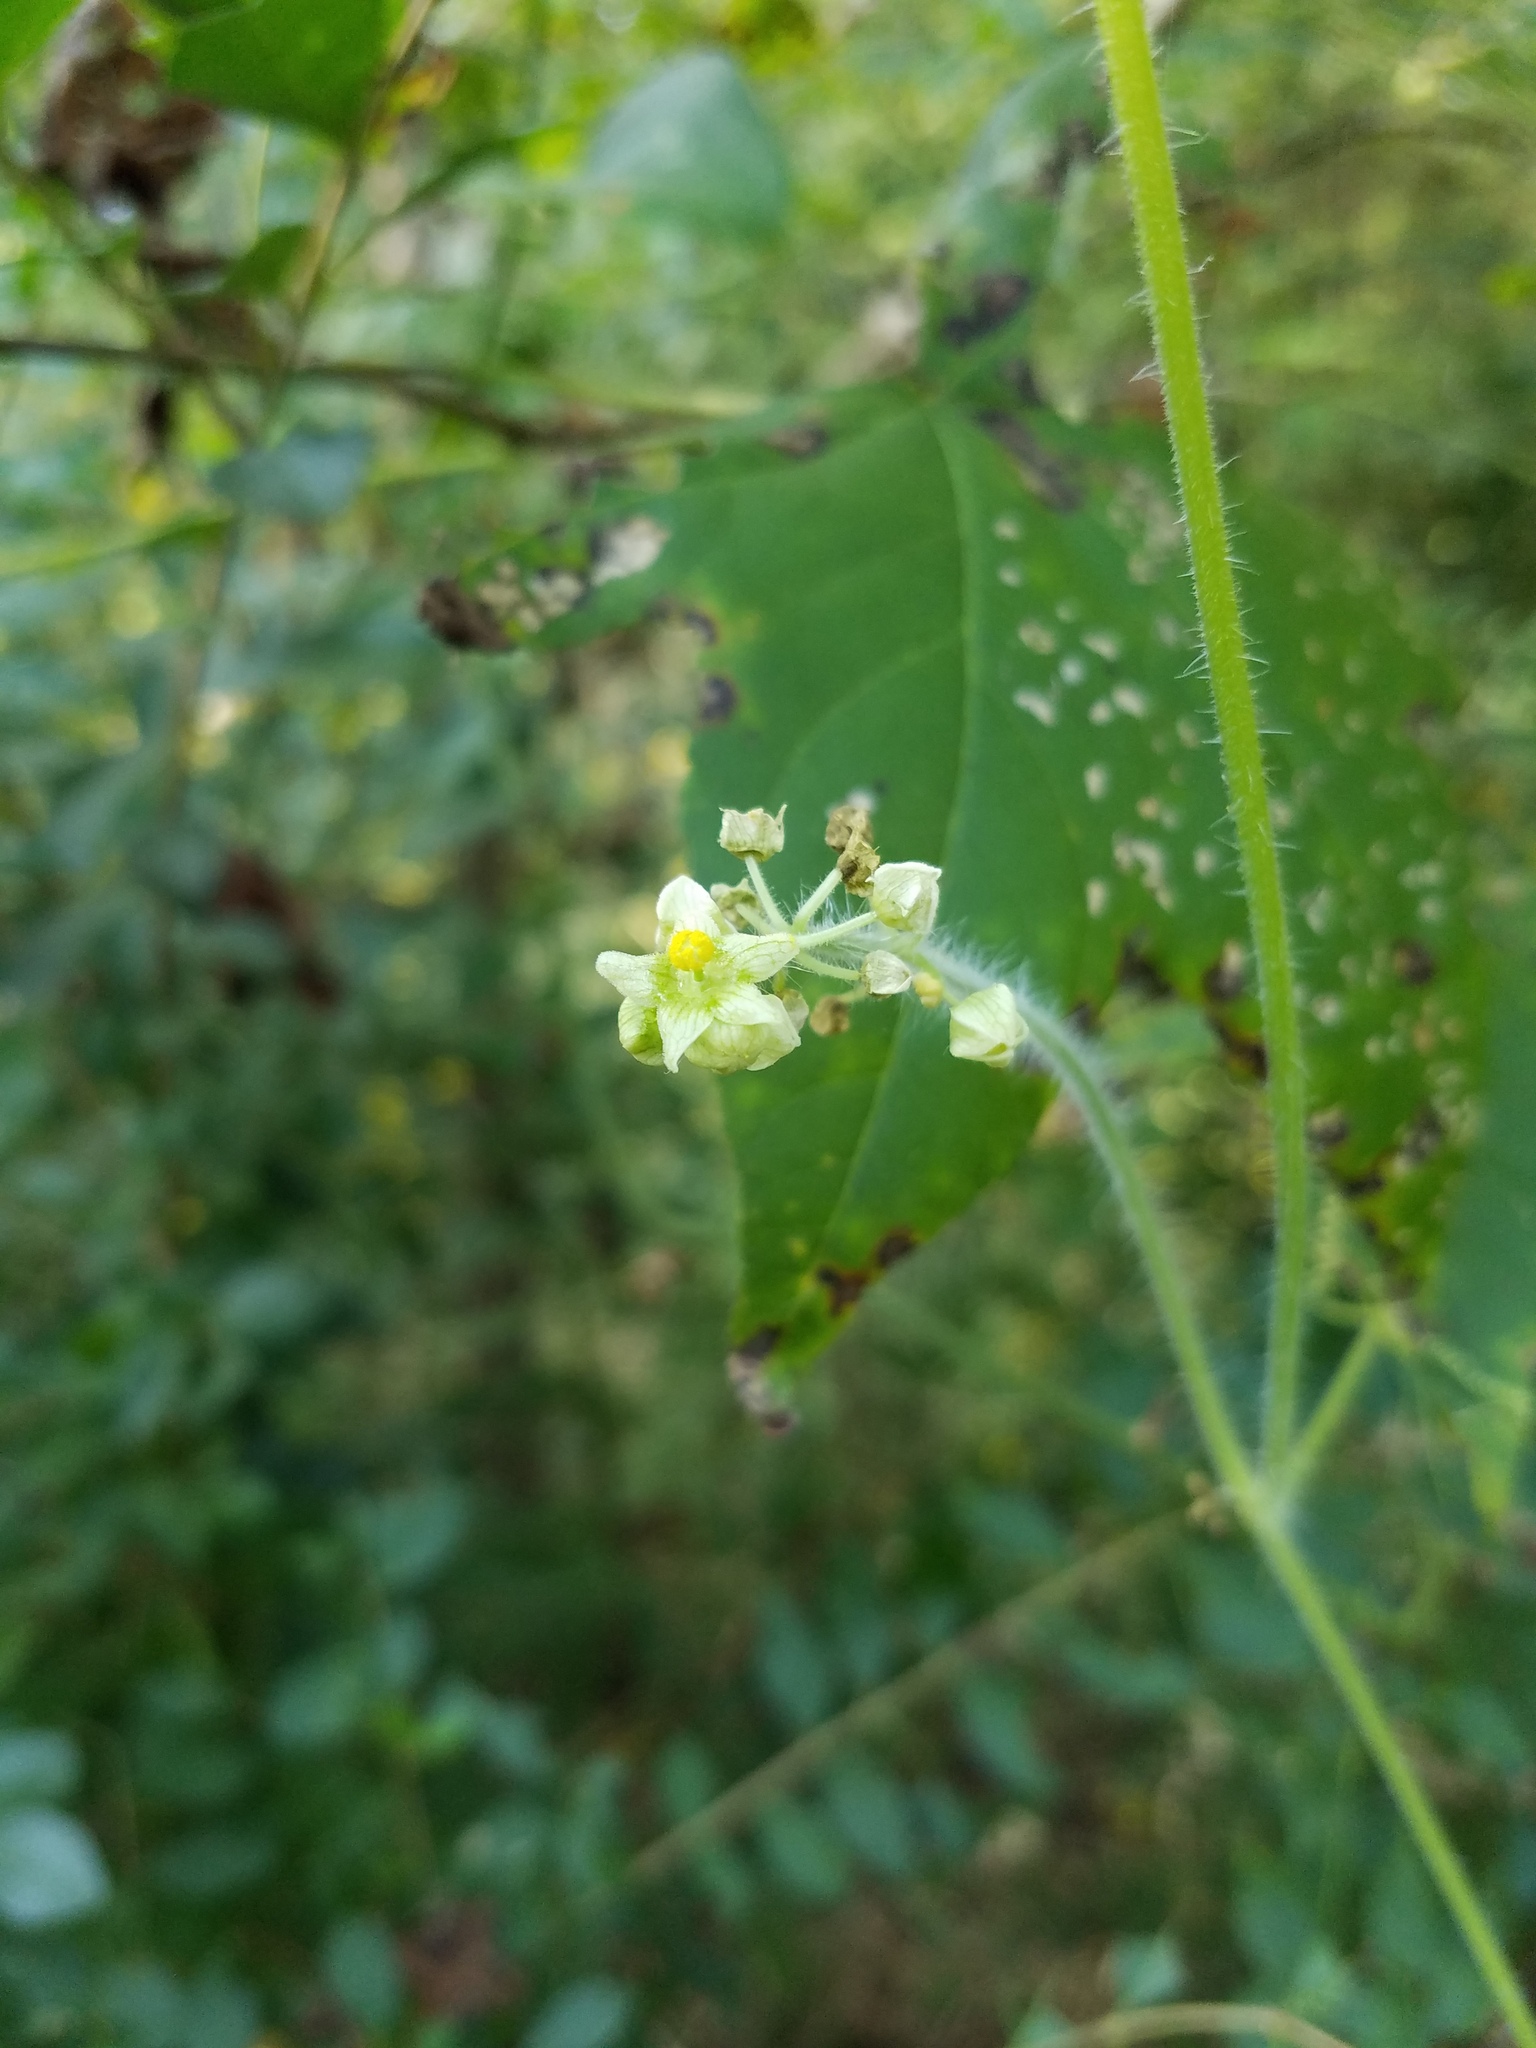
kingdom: Plantae
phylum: Tracheophyta
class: Magnoliopsida
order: Cucurbitales
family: Cucurbitaceae
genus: Sicyos
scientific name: Sicyos angulatus
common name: Angled burr cucumber
